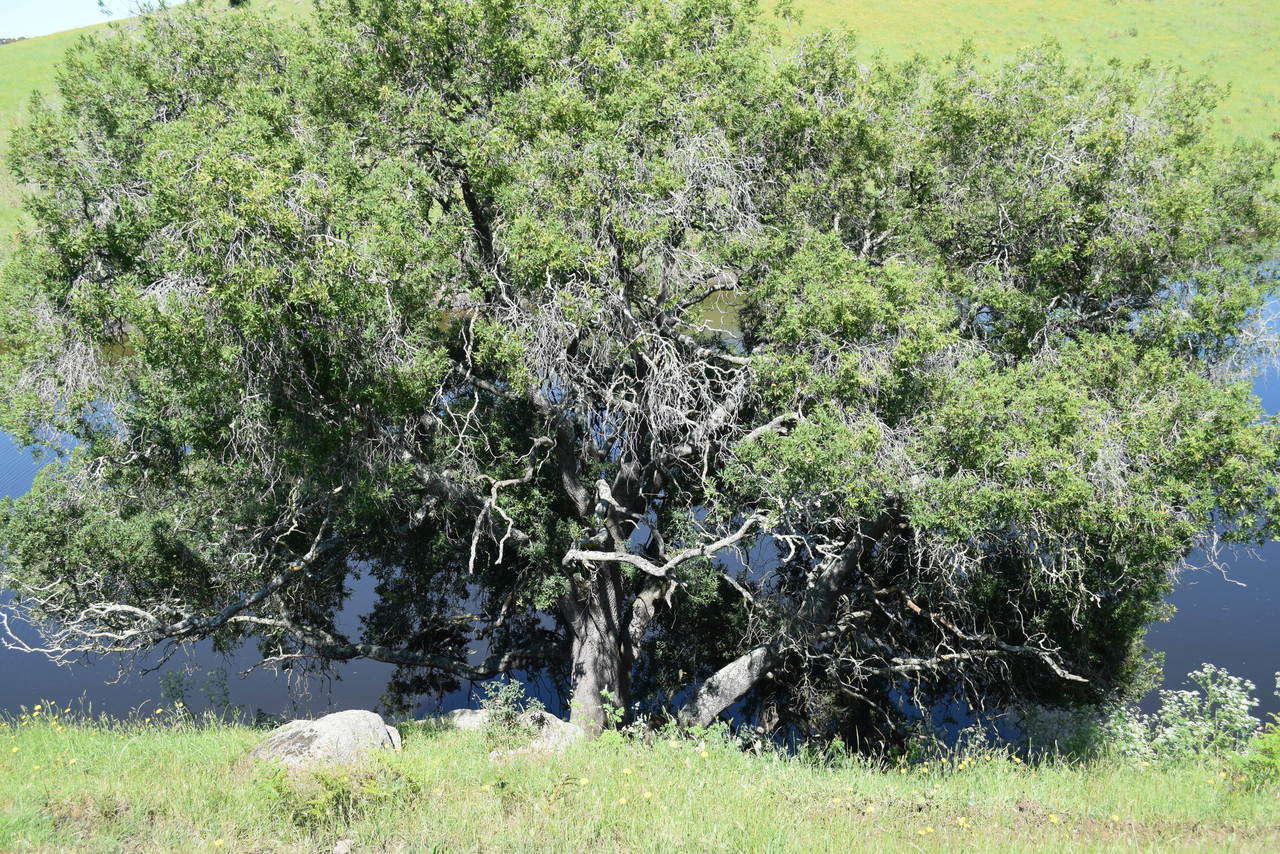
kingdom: Plantae
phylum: Tracheophyta
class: Magnoliopsida
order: Lamiales
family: Oleaceae
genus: Notelaea
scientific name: Notelaea ligustrina
